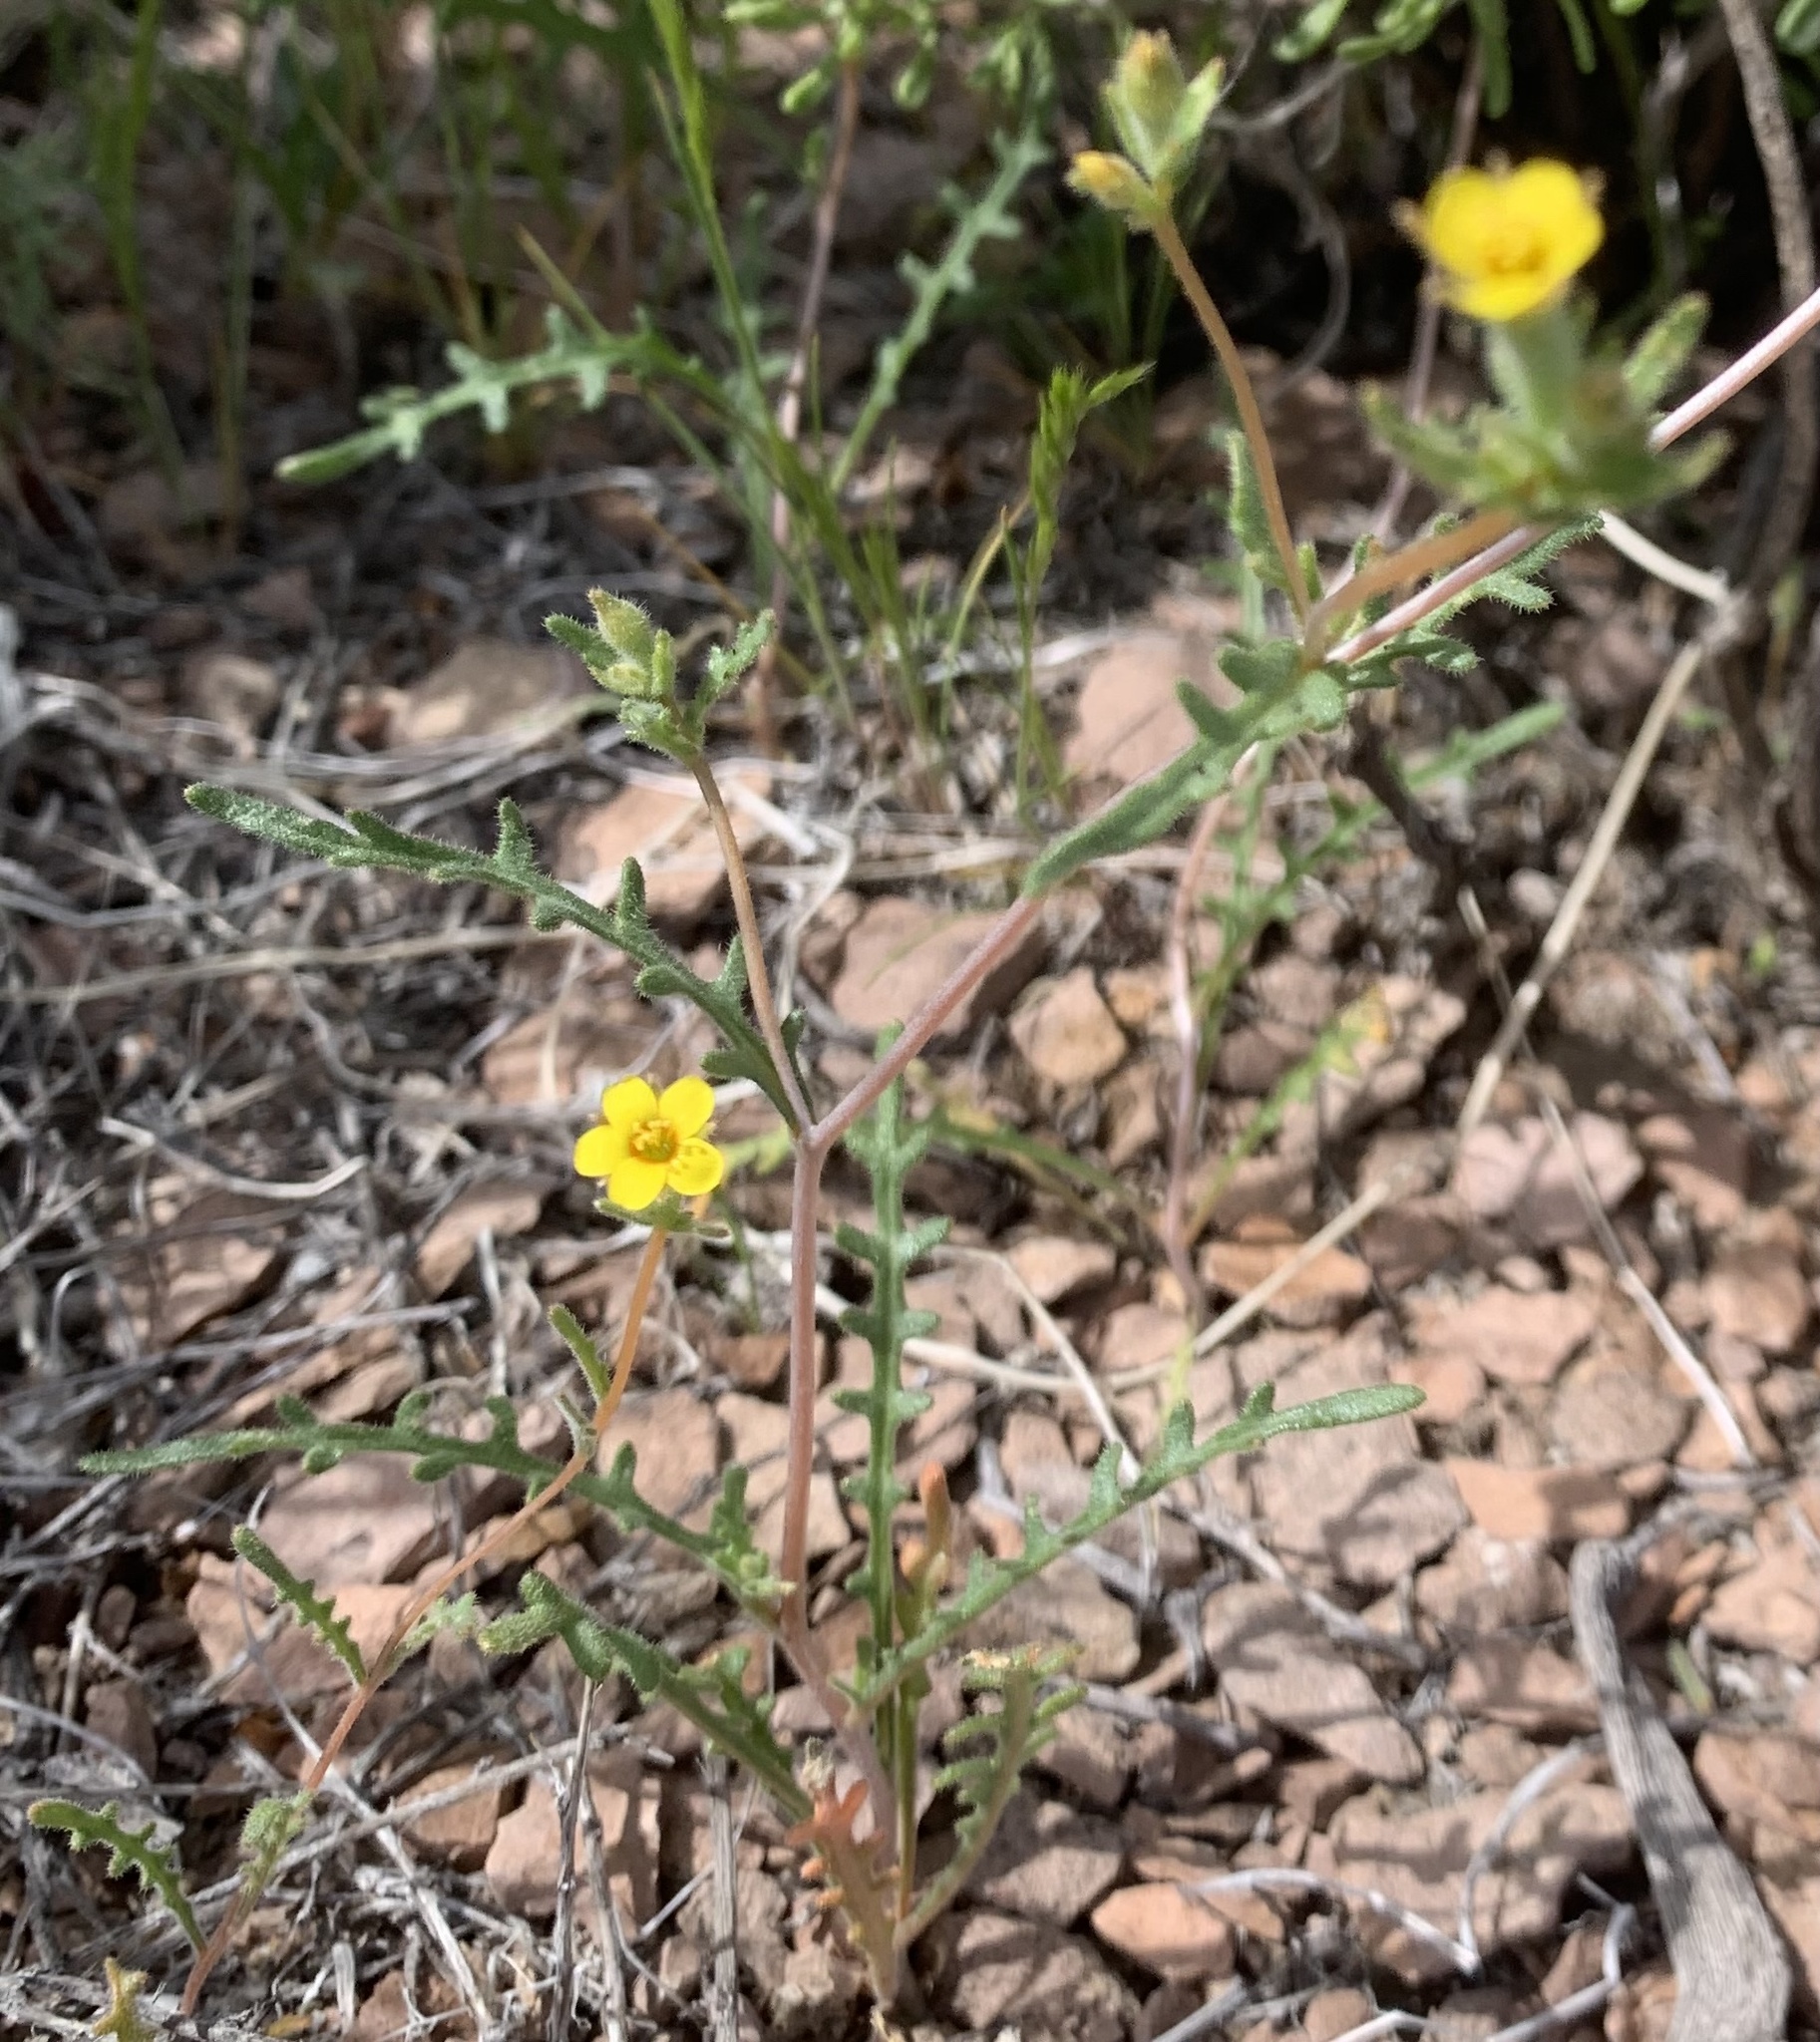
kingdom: Plantae
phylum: Tracheophyta
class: Magnoliopsida
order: Cornales
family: Loasaceae
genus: Mentzelia
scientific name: Mentzelia albicaulis
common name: White-stem blazingstar
